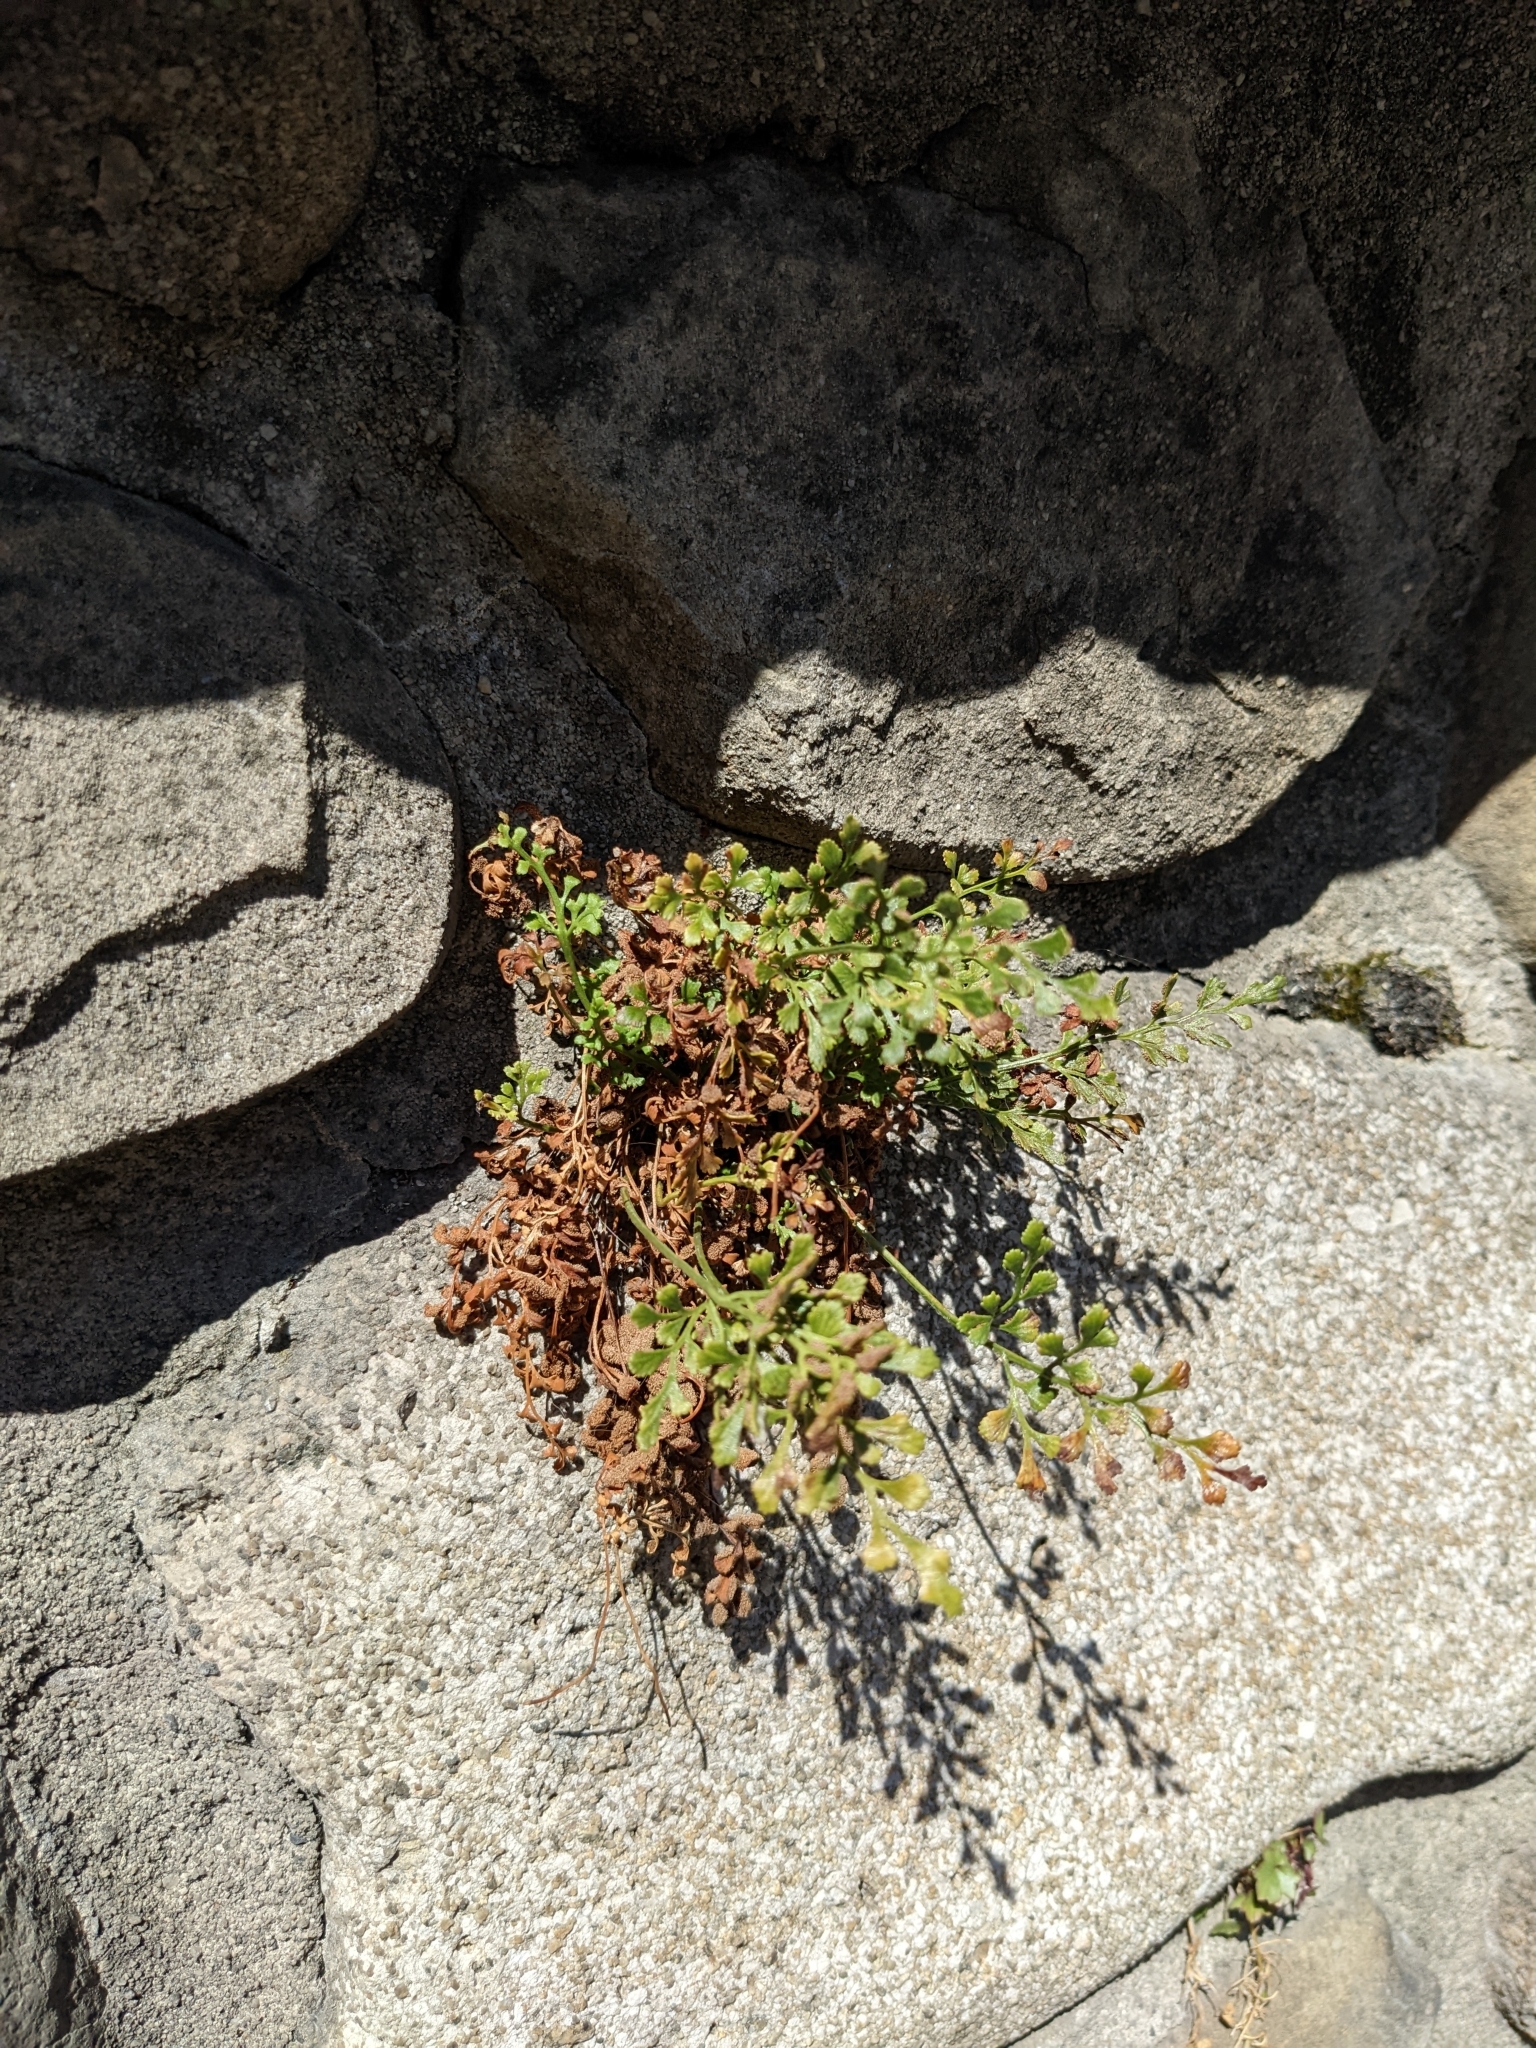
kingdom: Plantae
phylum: Tracheophyta
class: Polypodiopsida
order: Polypodiales
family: Aspleniaceae
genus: Asplenium
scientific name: Asplenium ruta-muraria
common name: Wall-rue
